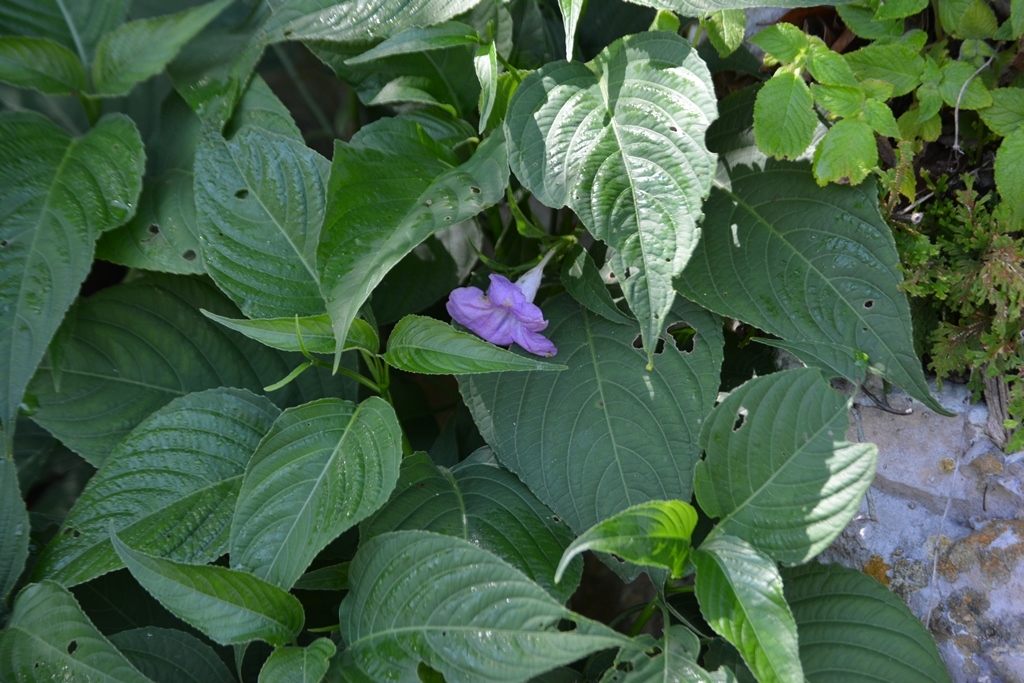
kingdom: Plantae
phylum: Tracheophyta
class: Magnoliopsida
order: Lamiales
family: Acanthaceae
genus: Ruellia
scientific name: Ruellia breedlovei
